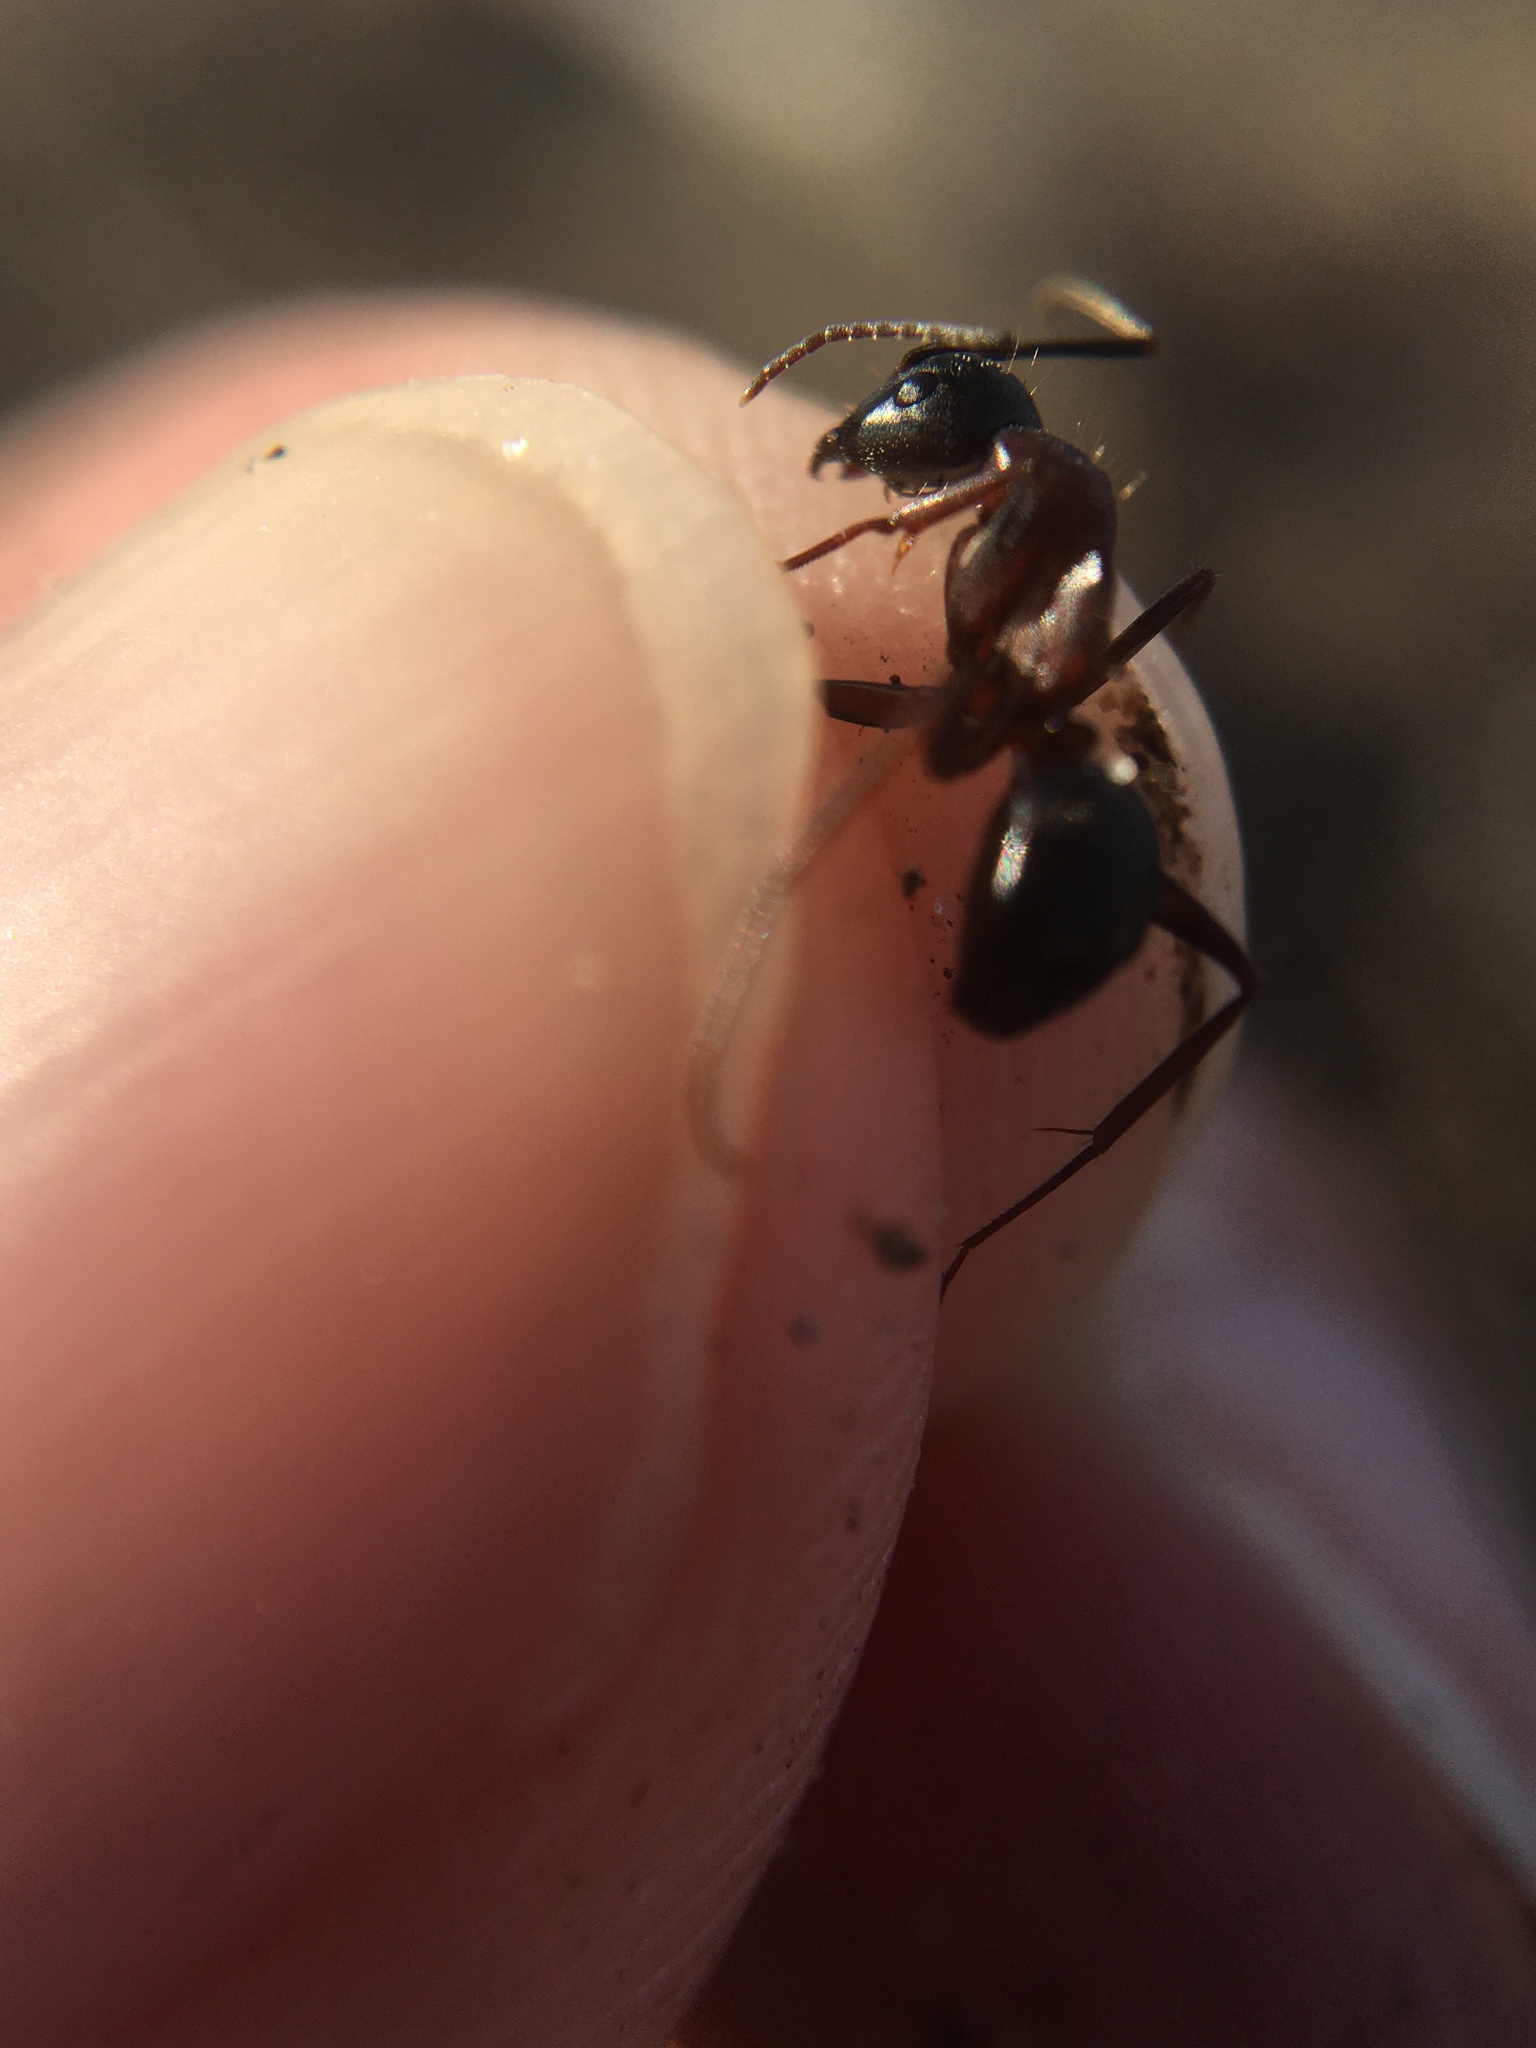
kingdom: Animalia
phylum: Arthropoda
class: Insecta
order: Hymenoptera
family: Formicidae
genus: Tanaemyrmex
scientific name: Tanaemyrmex
